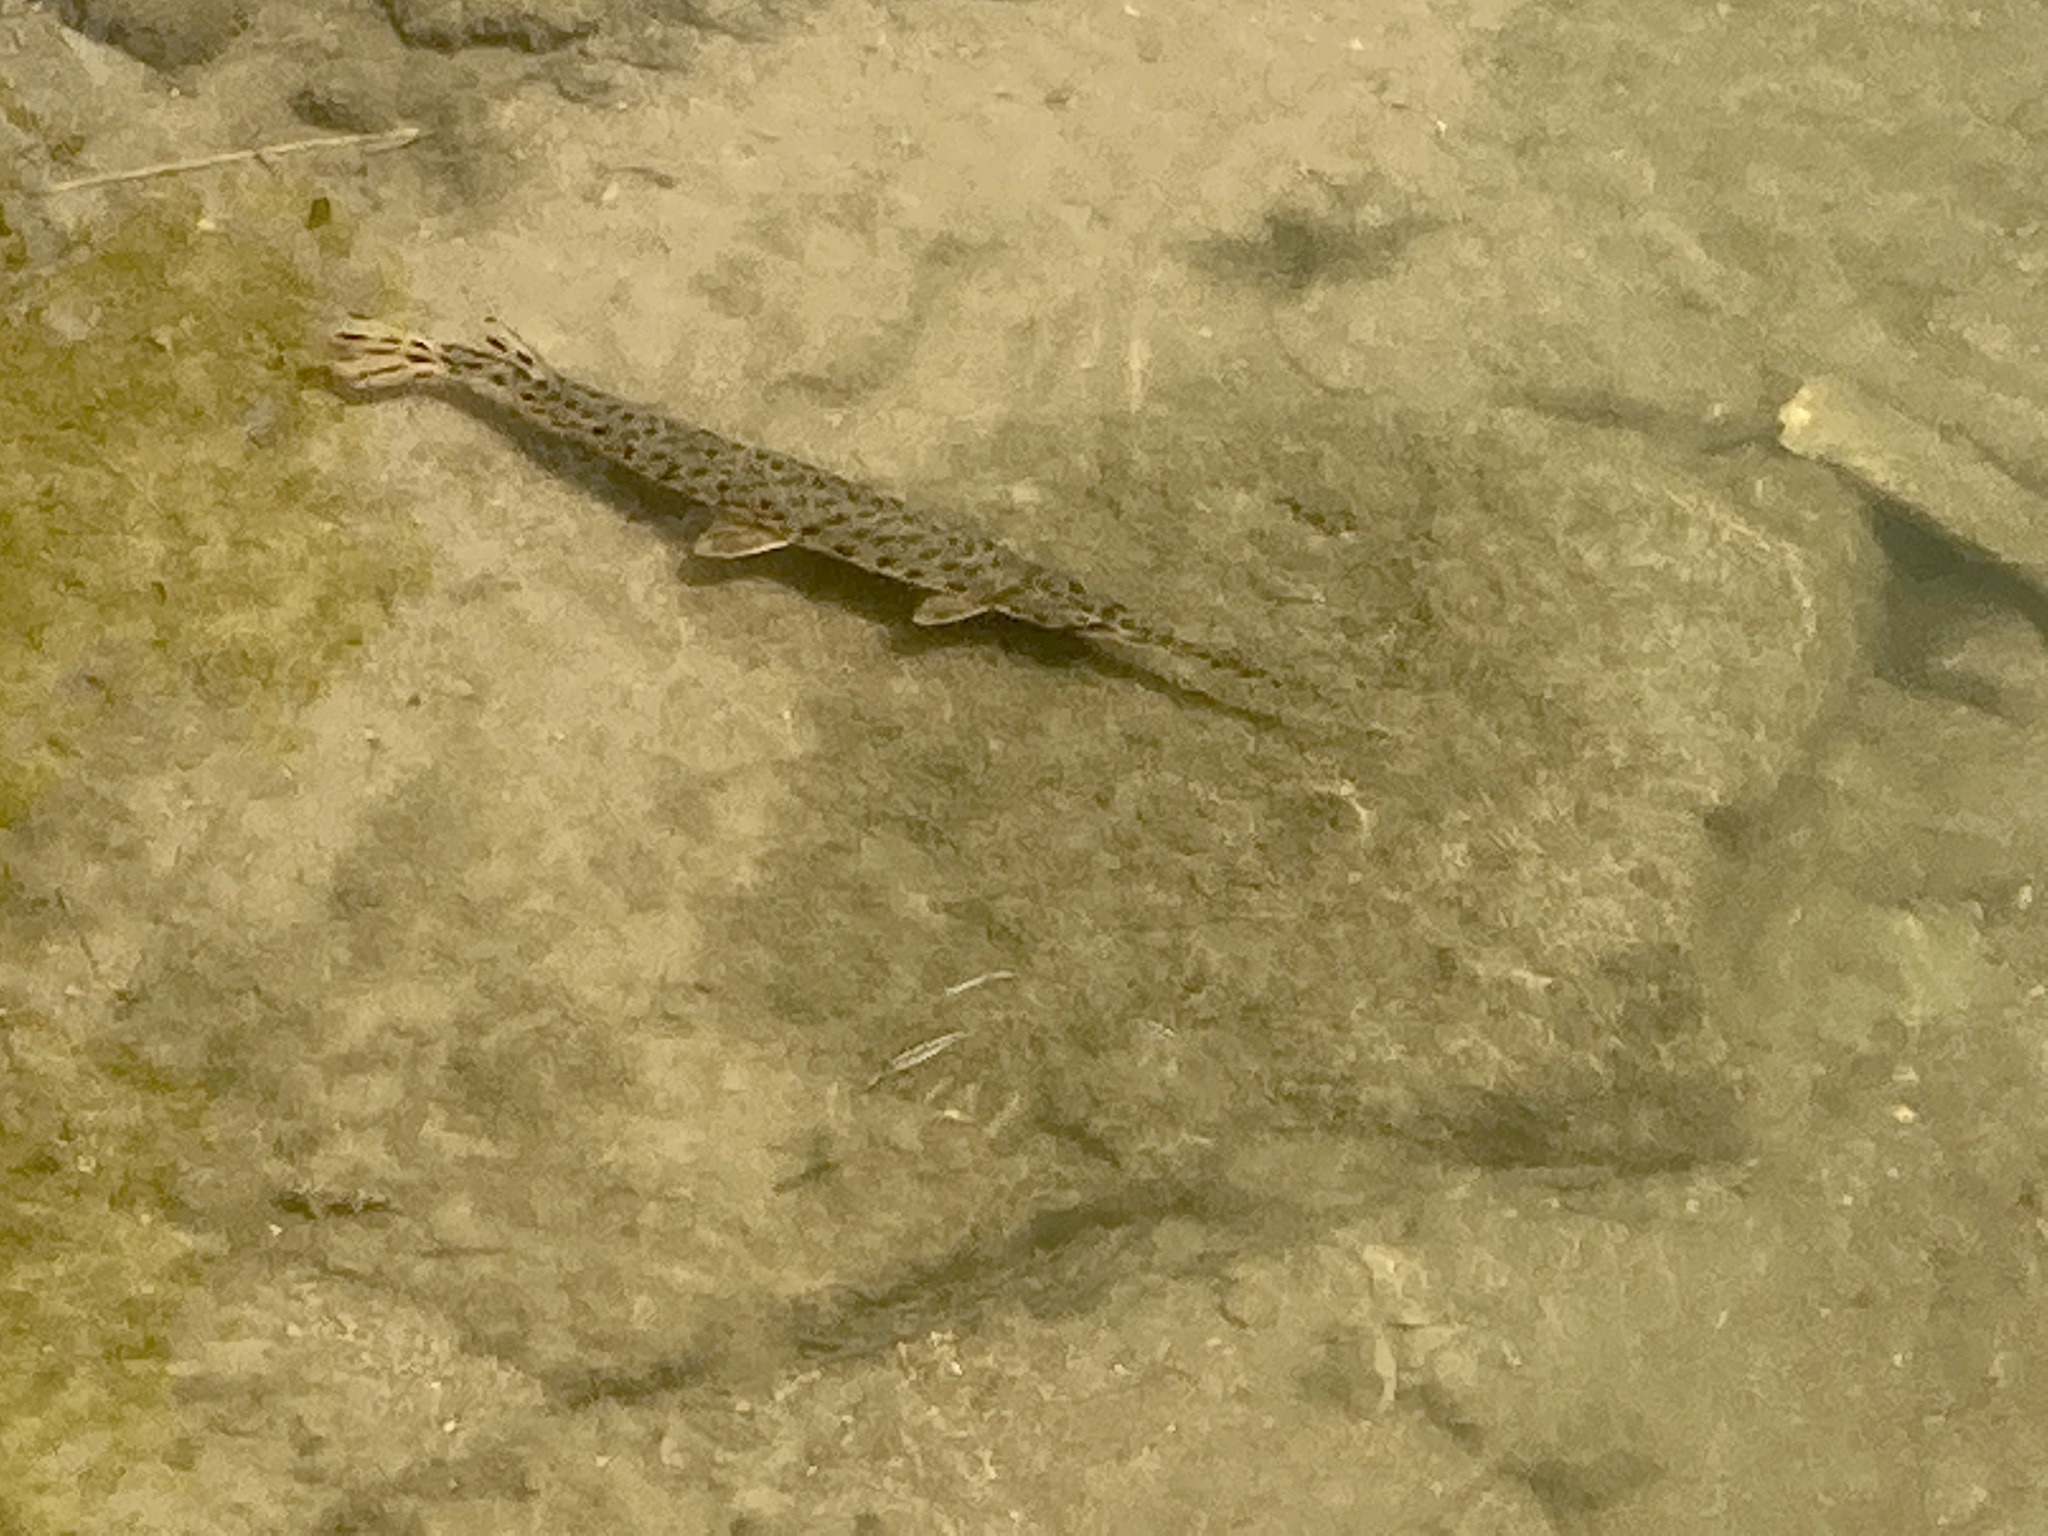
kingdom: Animalia
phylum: Chordata
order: Lepisosteiformes
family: Lepisosteidae
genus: Lepisosteus
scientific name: Lepisosteus osseus
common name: Longnose gar
